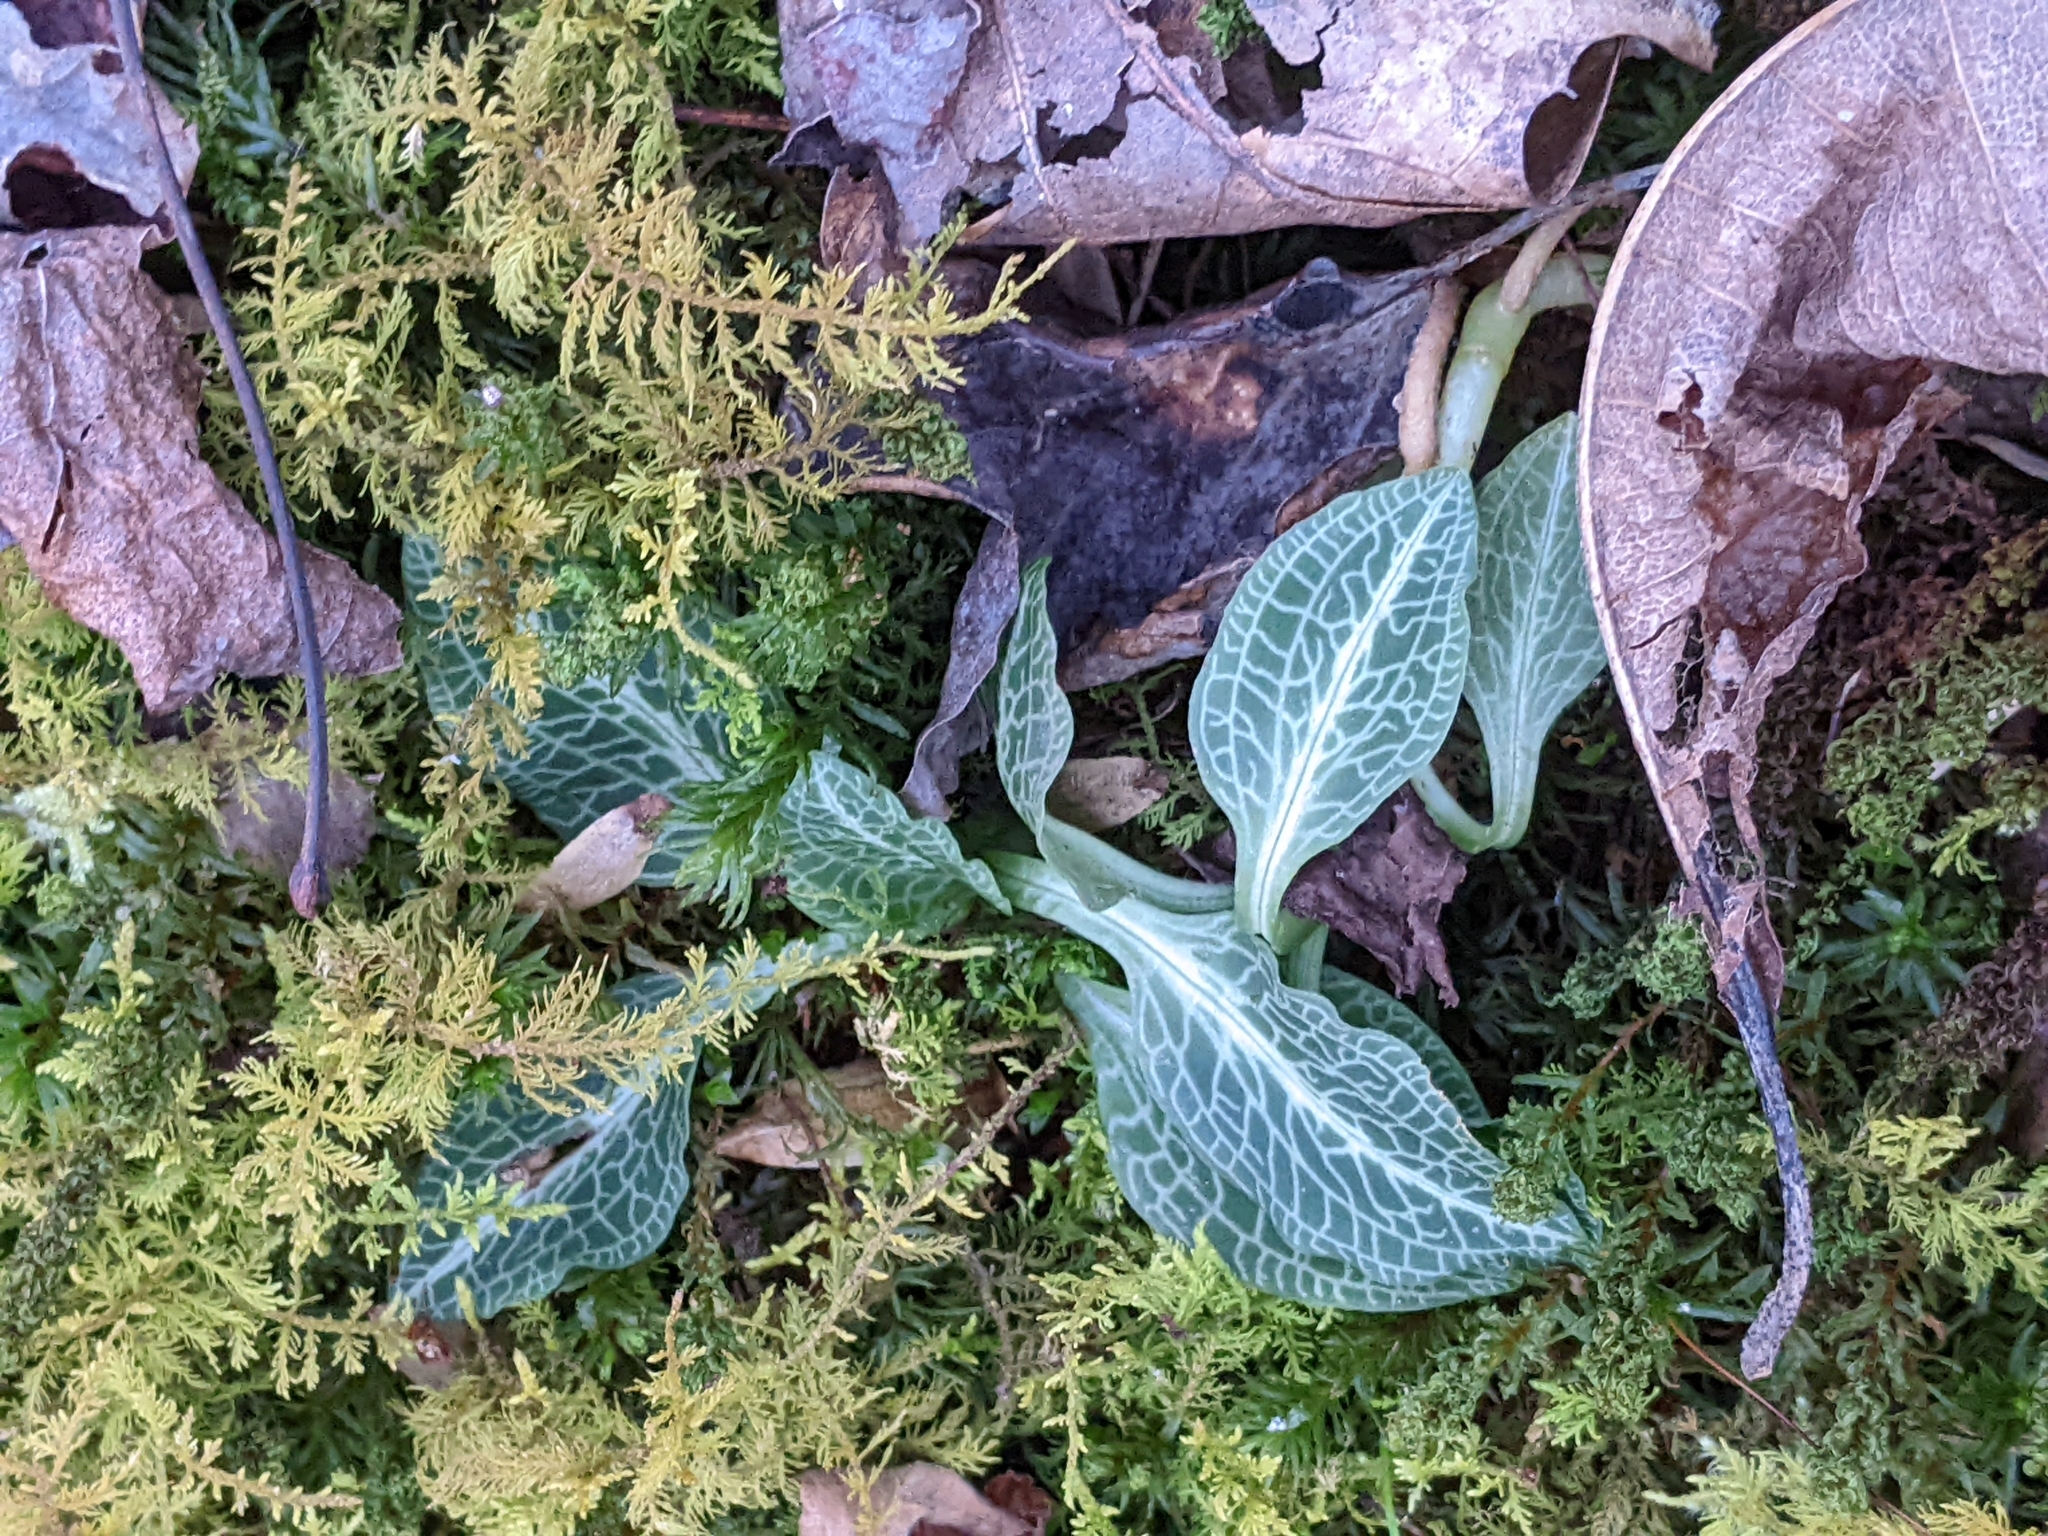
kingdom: Plantae
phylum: Tracheophyta
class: Liliopsida
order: Asparagales
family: Orchidaceae
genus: Goodyera
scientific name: Goodyera pubescens
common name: Downy rattlesnake-plantain
